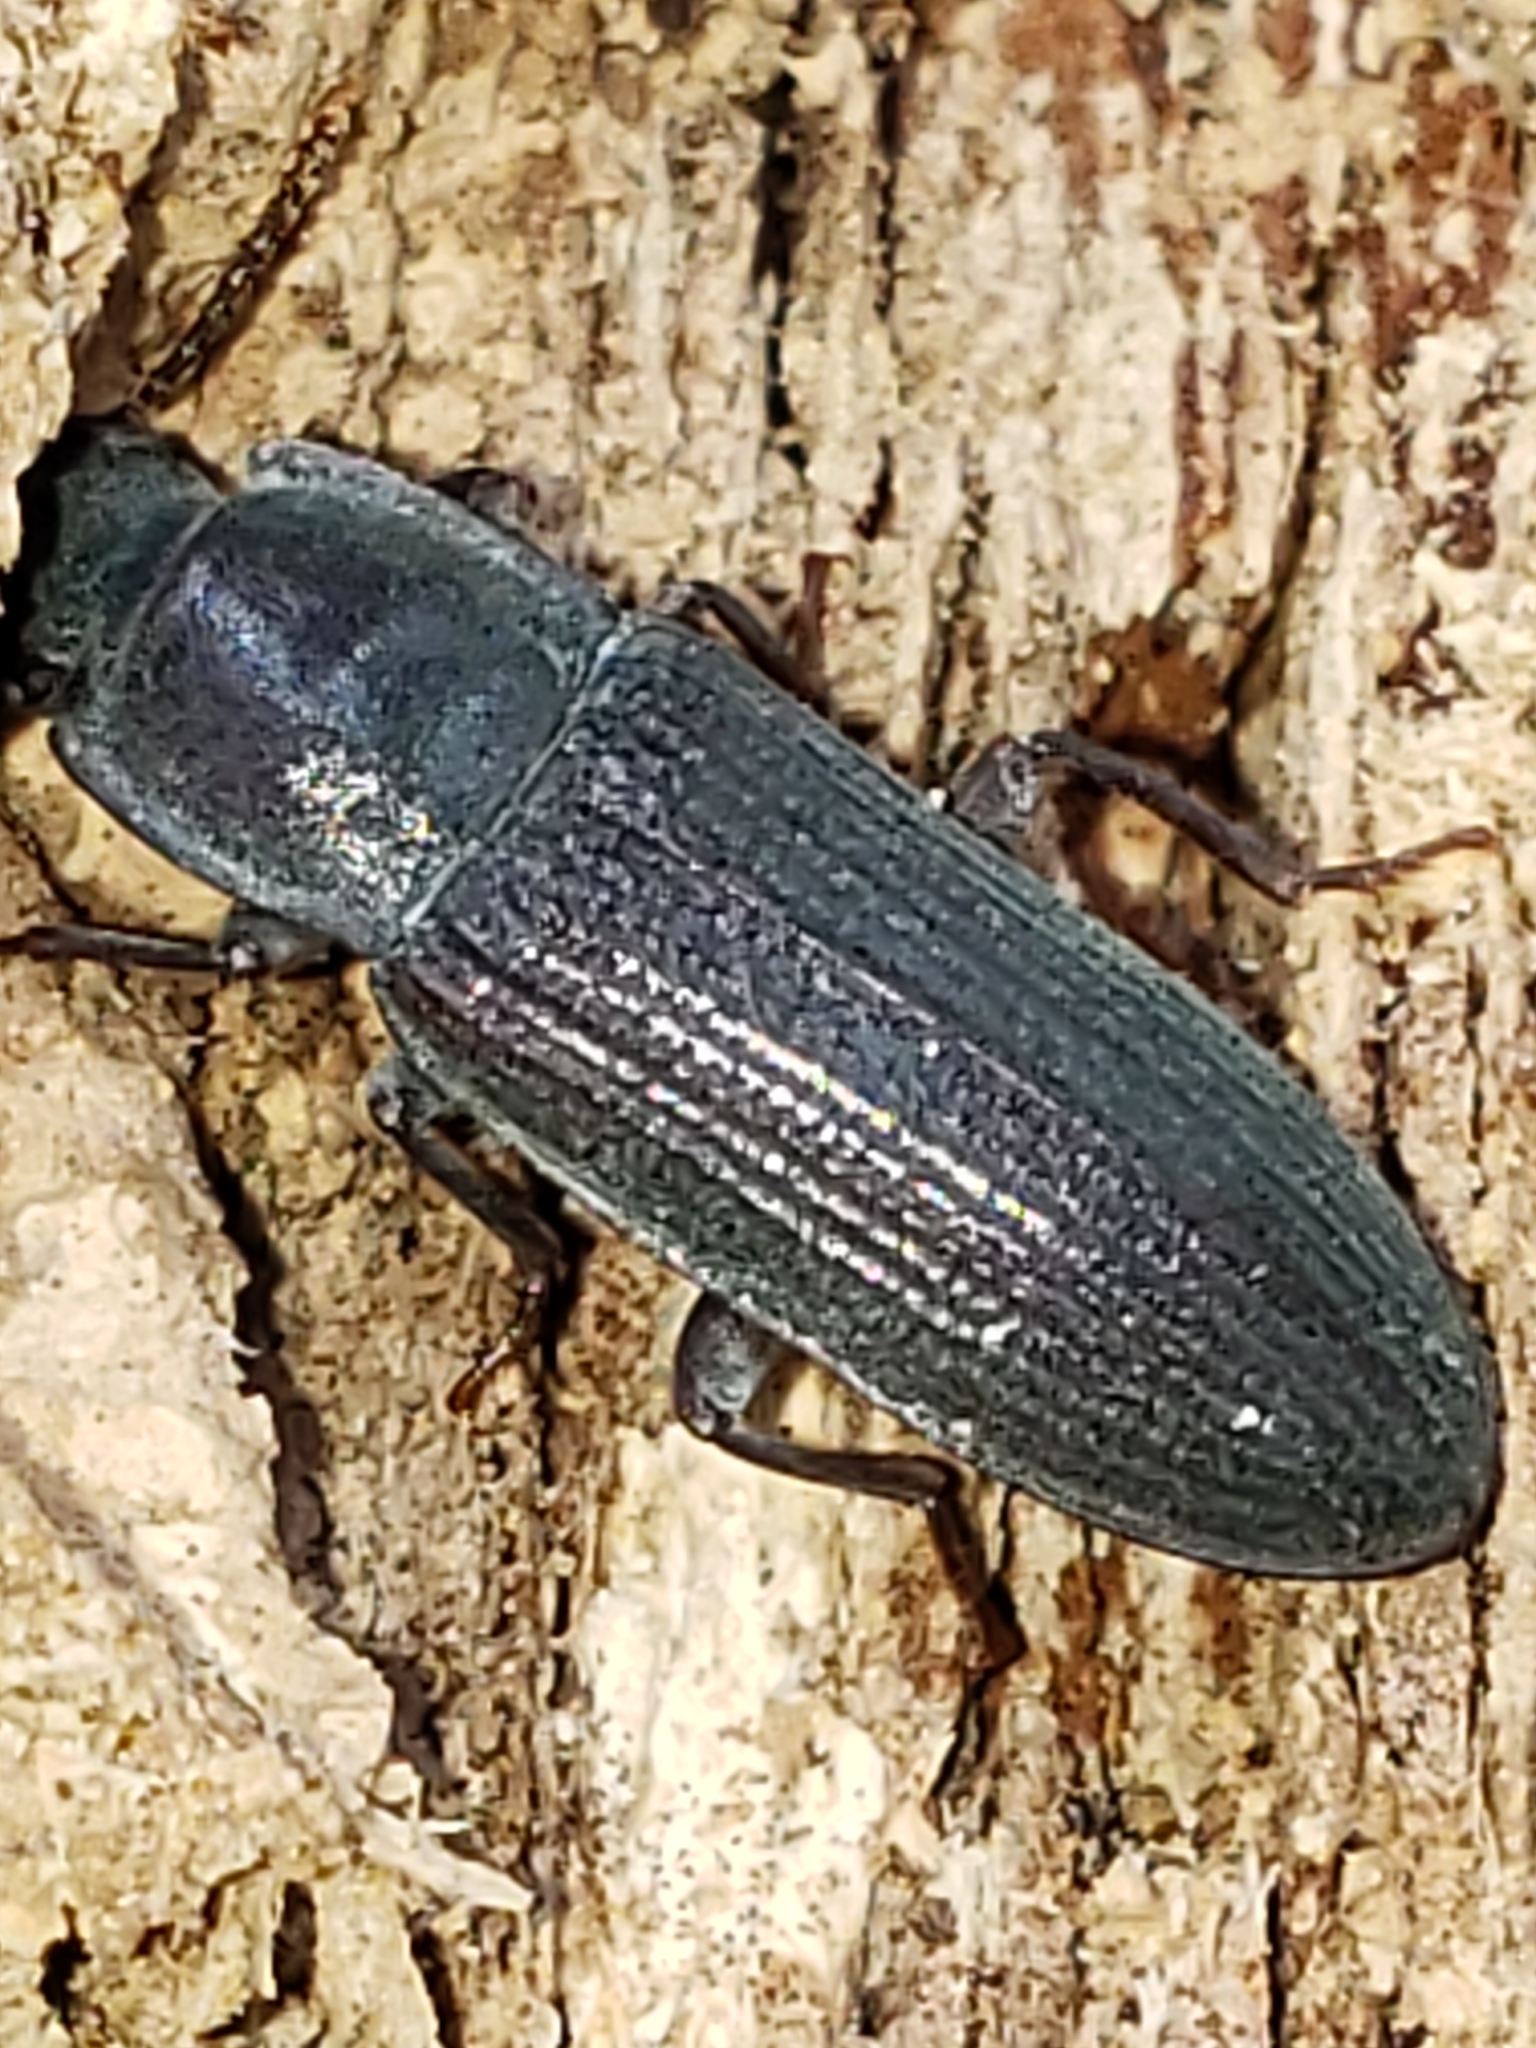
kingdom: Animalia
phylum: Arthropoda
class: Insecta
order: Coleoptera
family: Tenebrionidae
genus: Idiobates
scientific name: Idiobates castaneus
